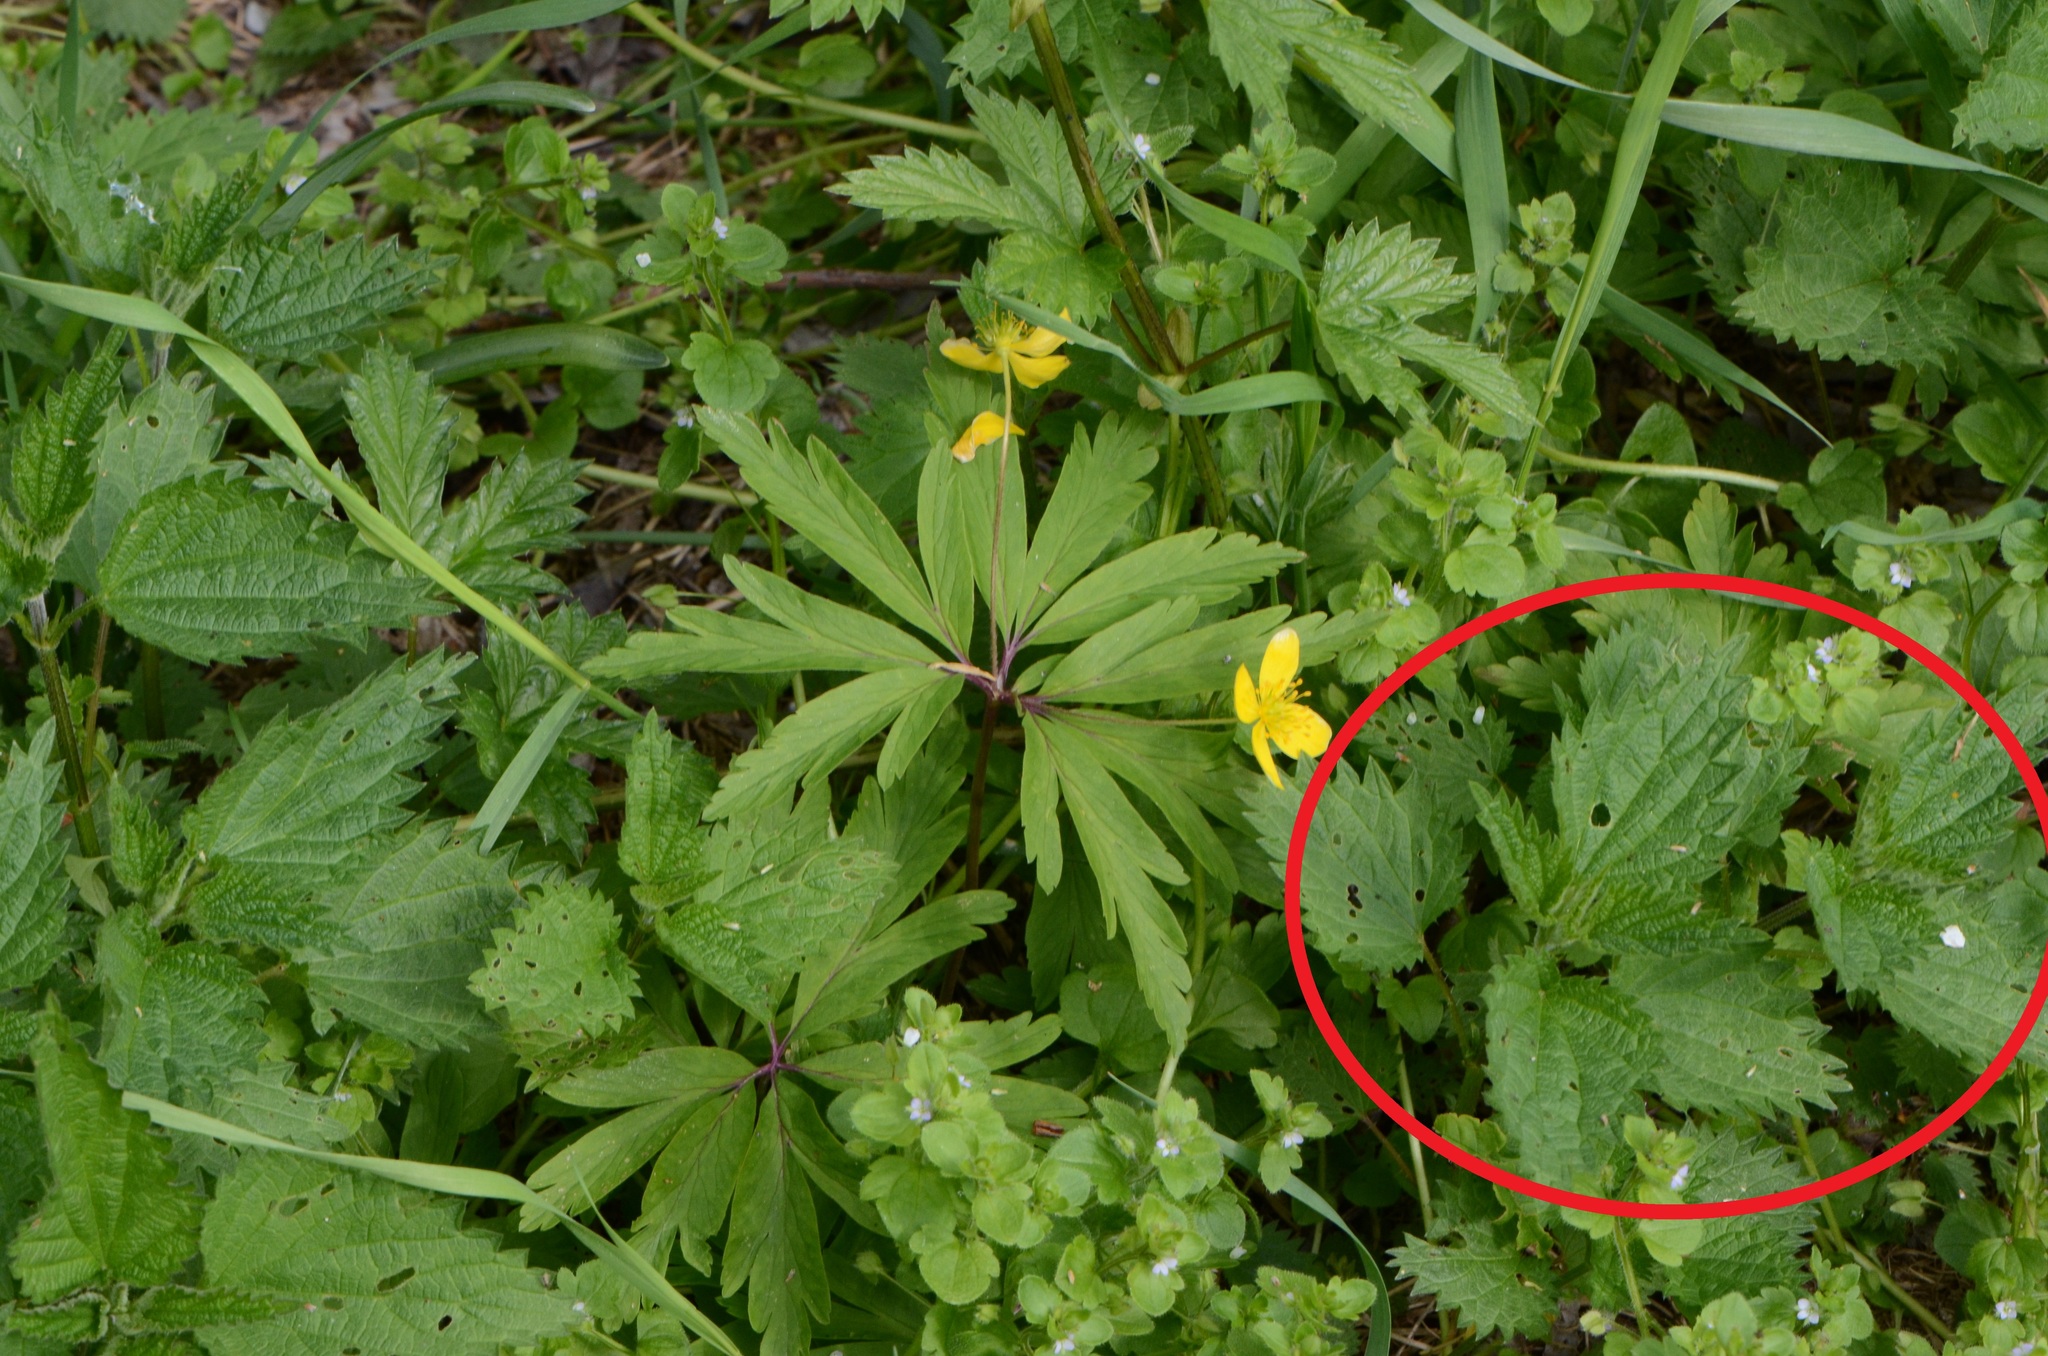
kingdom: Plantae
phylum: Tracheophyta
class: Magnoliopsida
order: Rosales
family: Urticaceae
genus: Urtica
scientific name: Urtica dioica
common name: Common nettle
